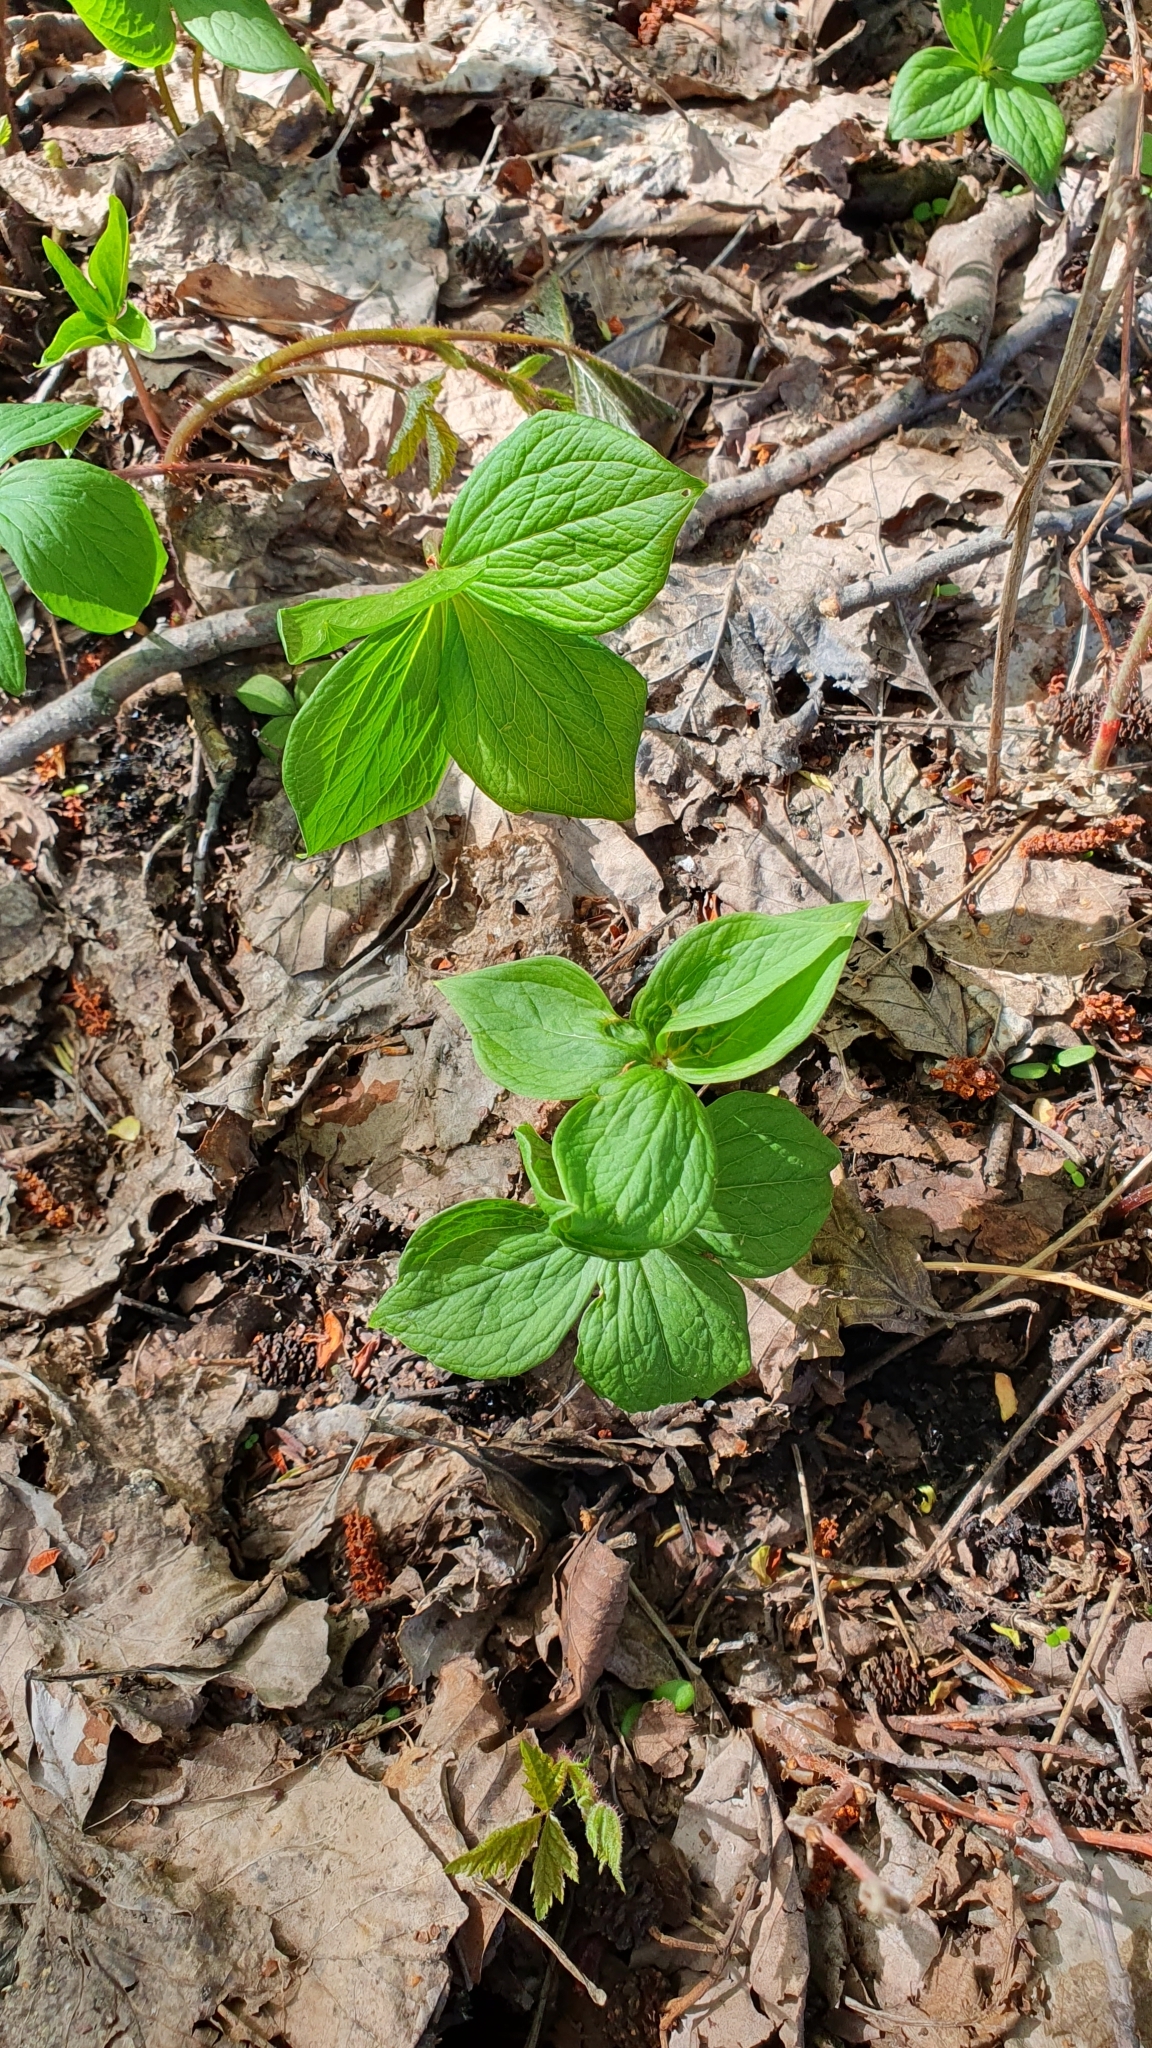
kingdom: Plantae
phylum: Tracheophyta
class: Liliopsida
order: Liliales
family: Melanthiaceae
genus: Paris
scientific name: Paris quadrifolia
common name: Herb-paris
